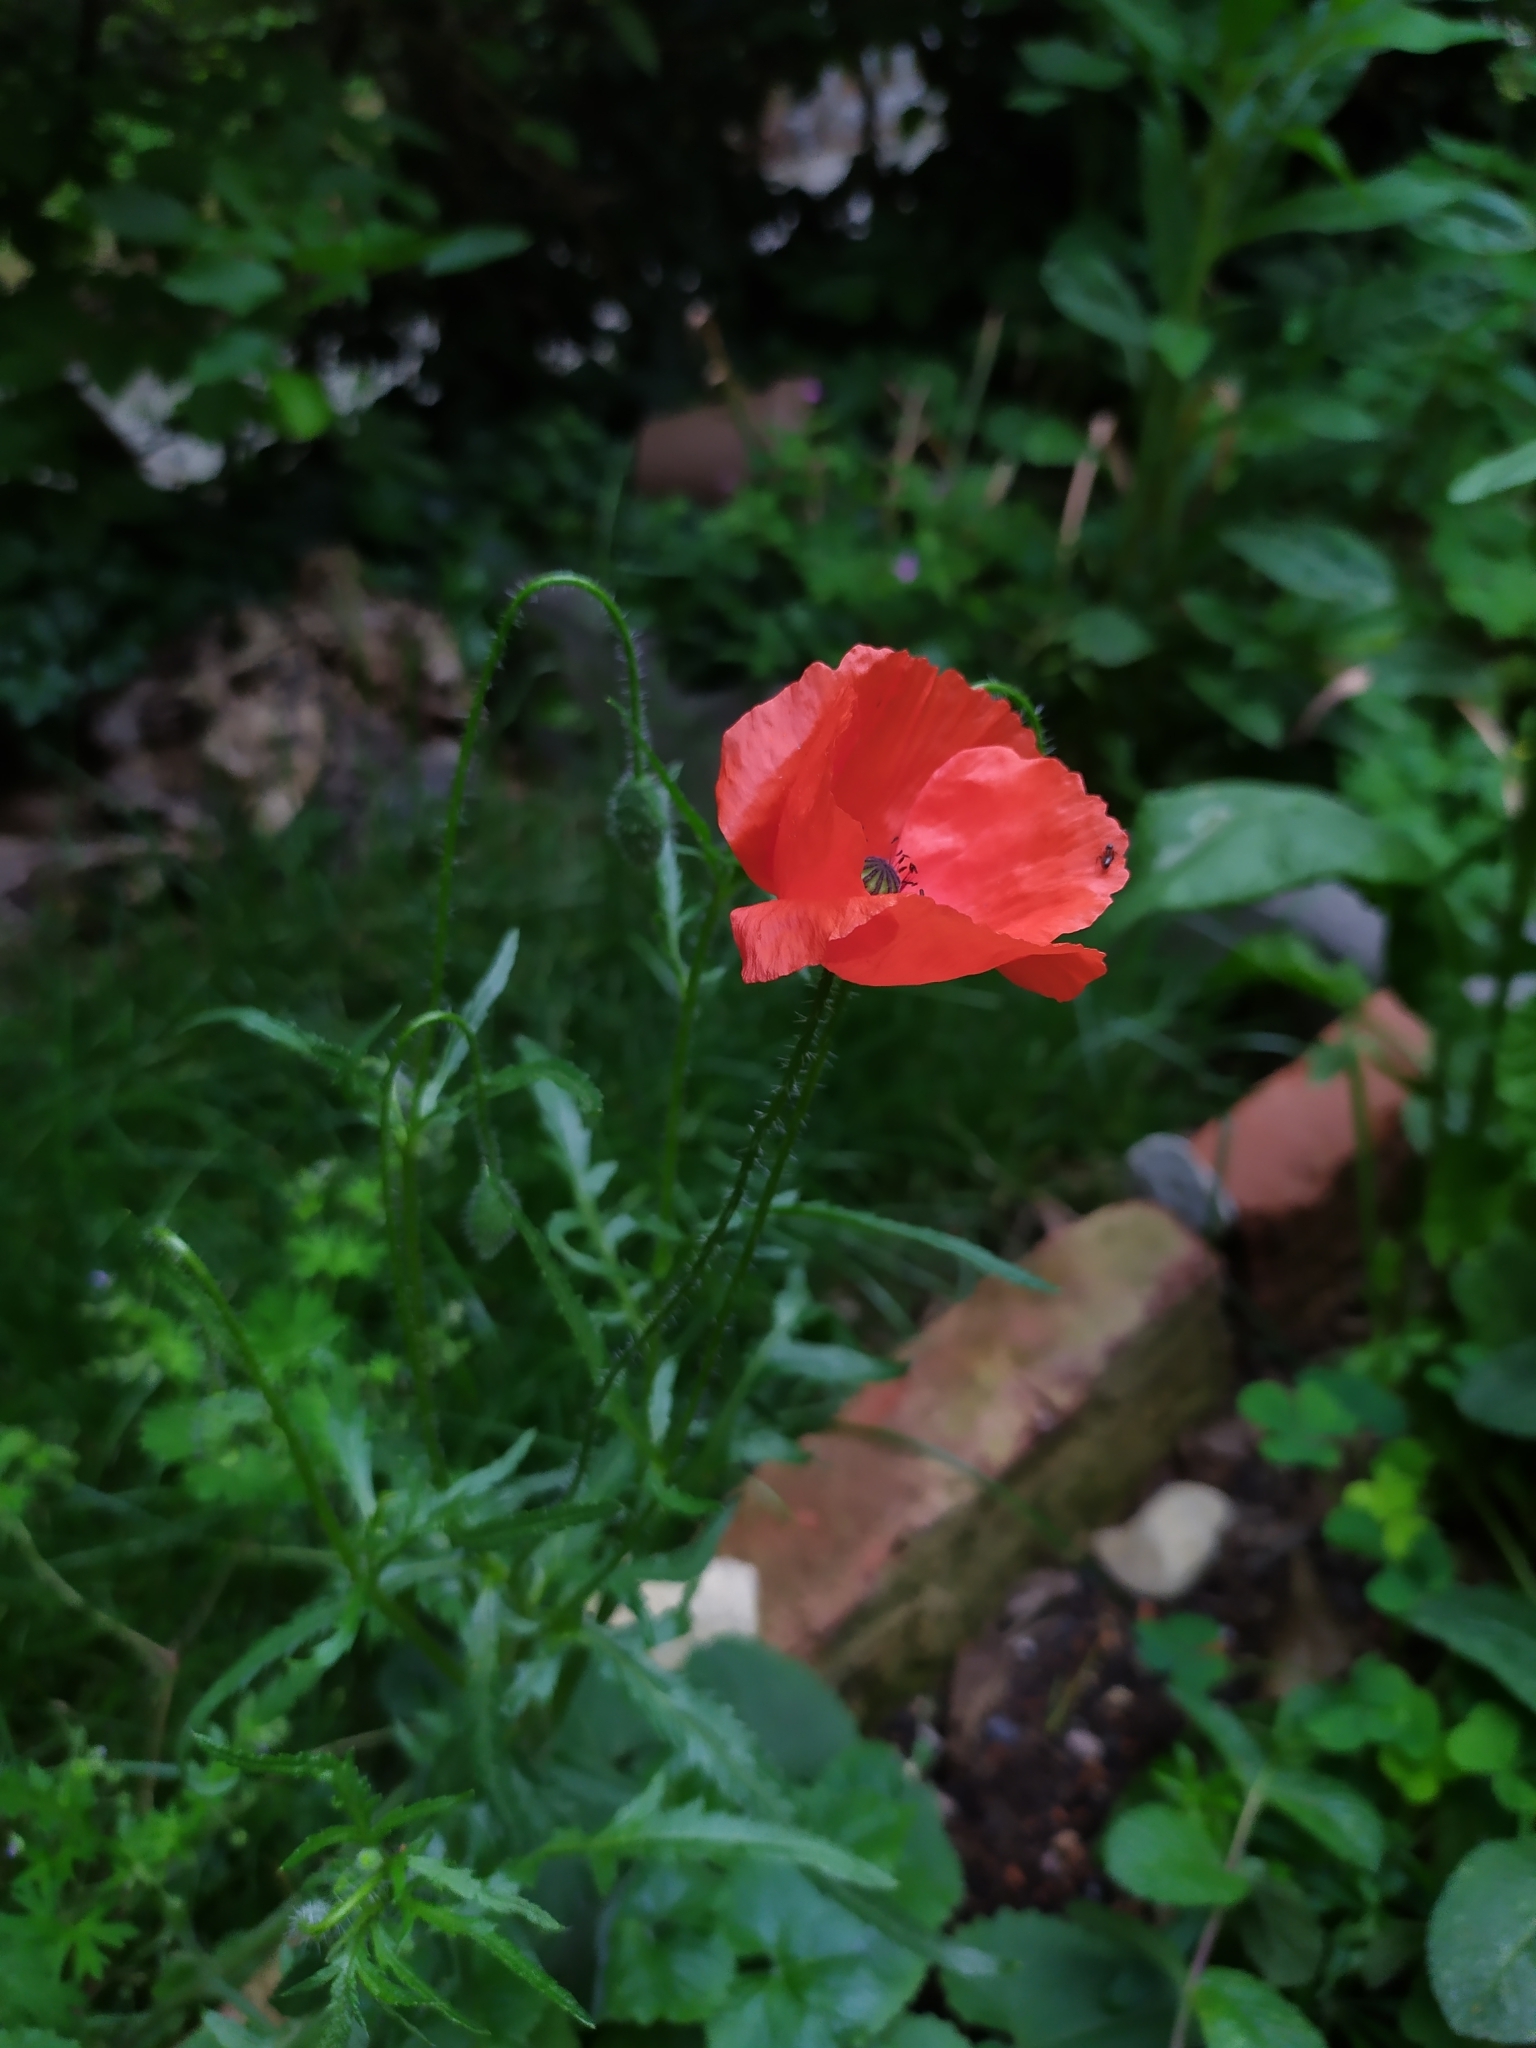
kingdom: Plantae
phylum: Tracheophyta
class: Magnoliopsida
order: Ranunculales
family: Papaveraceae
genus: Papaver
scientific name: Papaver rhoeas
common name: Corn poppy
